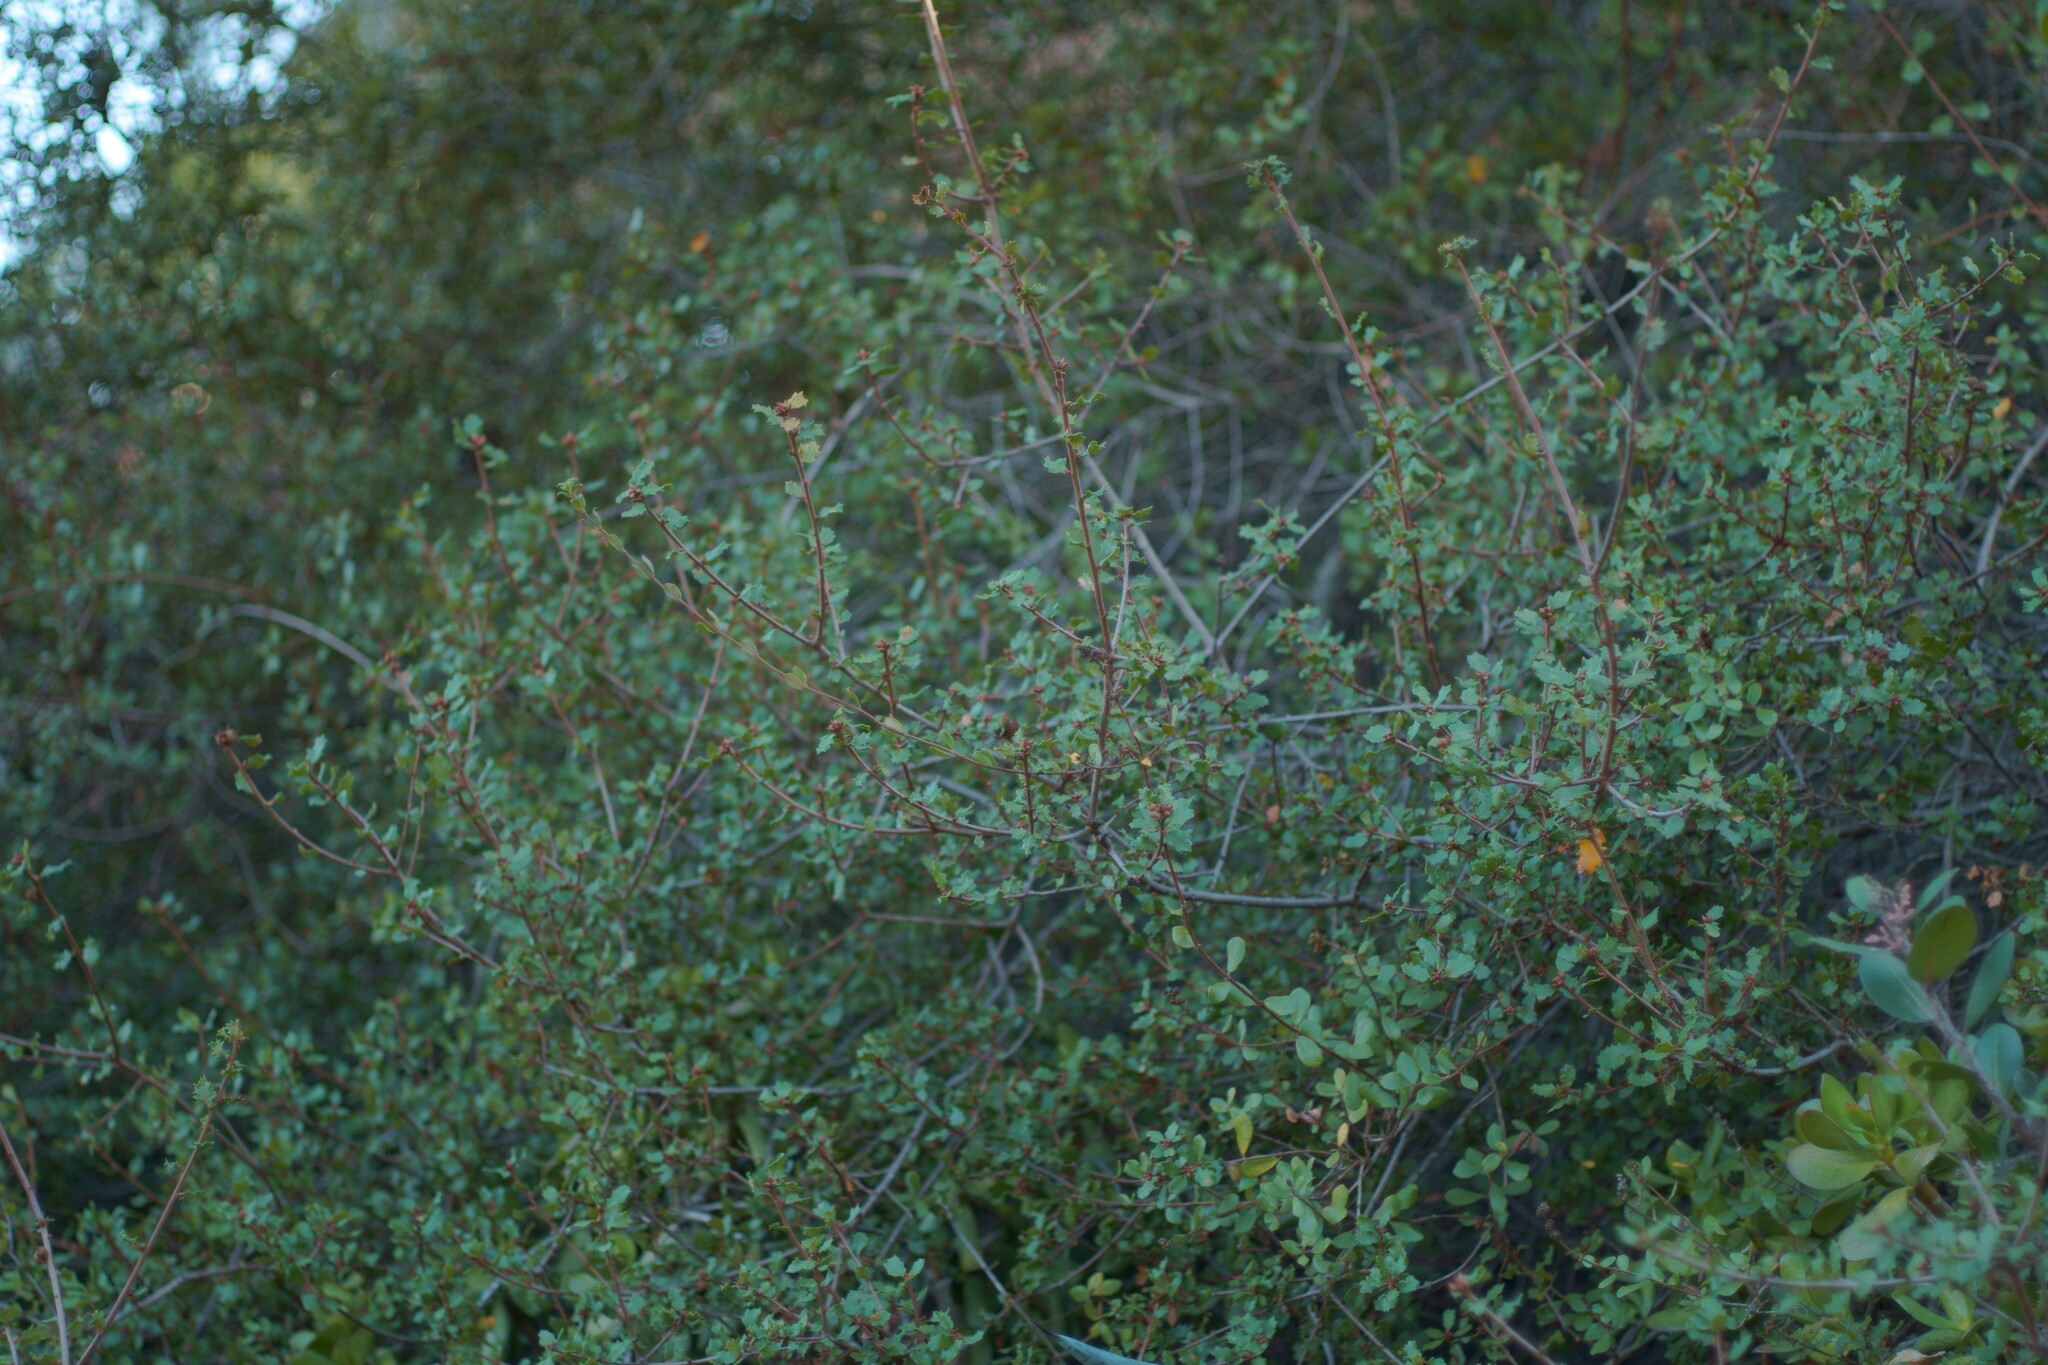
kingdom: Plantae
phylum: Tracheophyta
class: Magnoliopsida
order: Fagales
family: Fagaceae
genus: Quercus
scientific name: Quercus dumosa
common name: Coastal sage scrub oak
